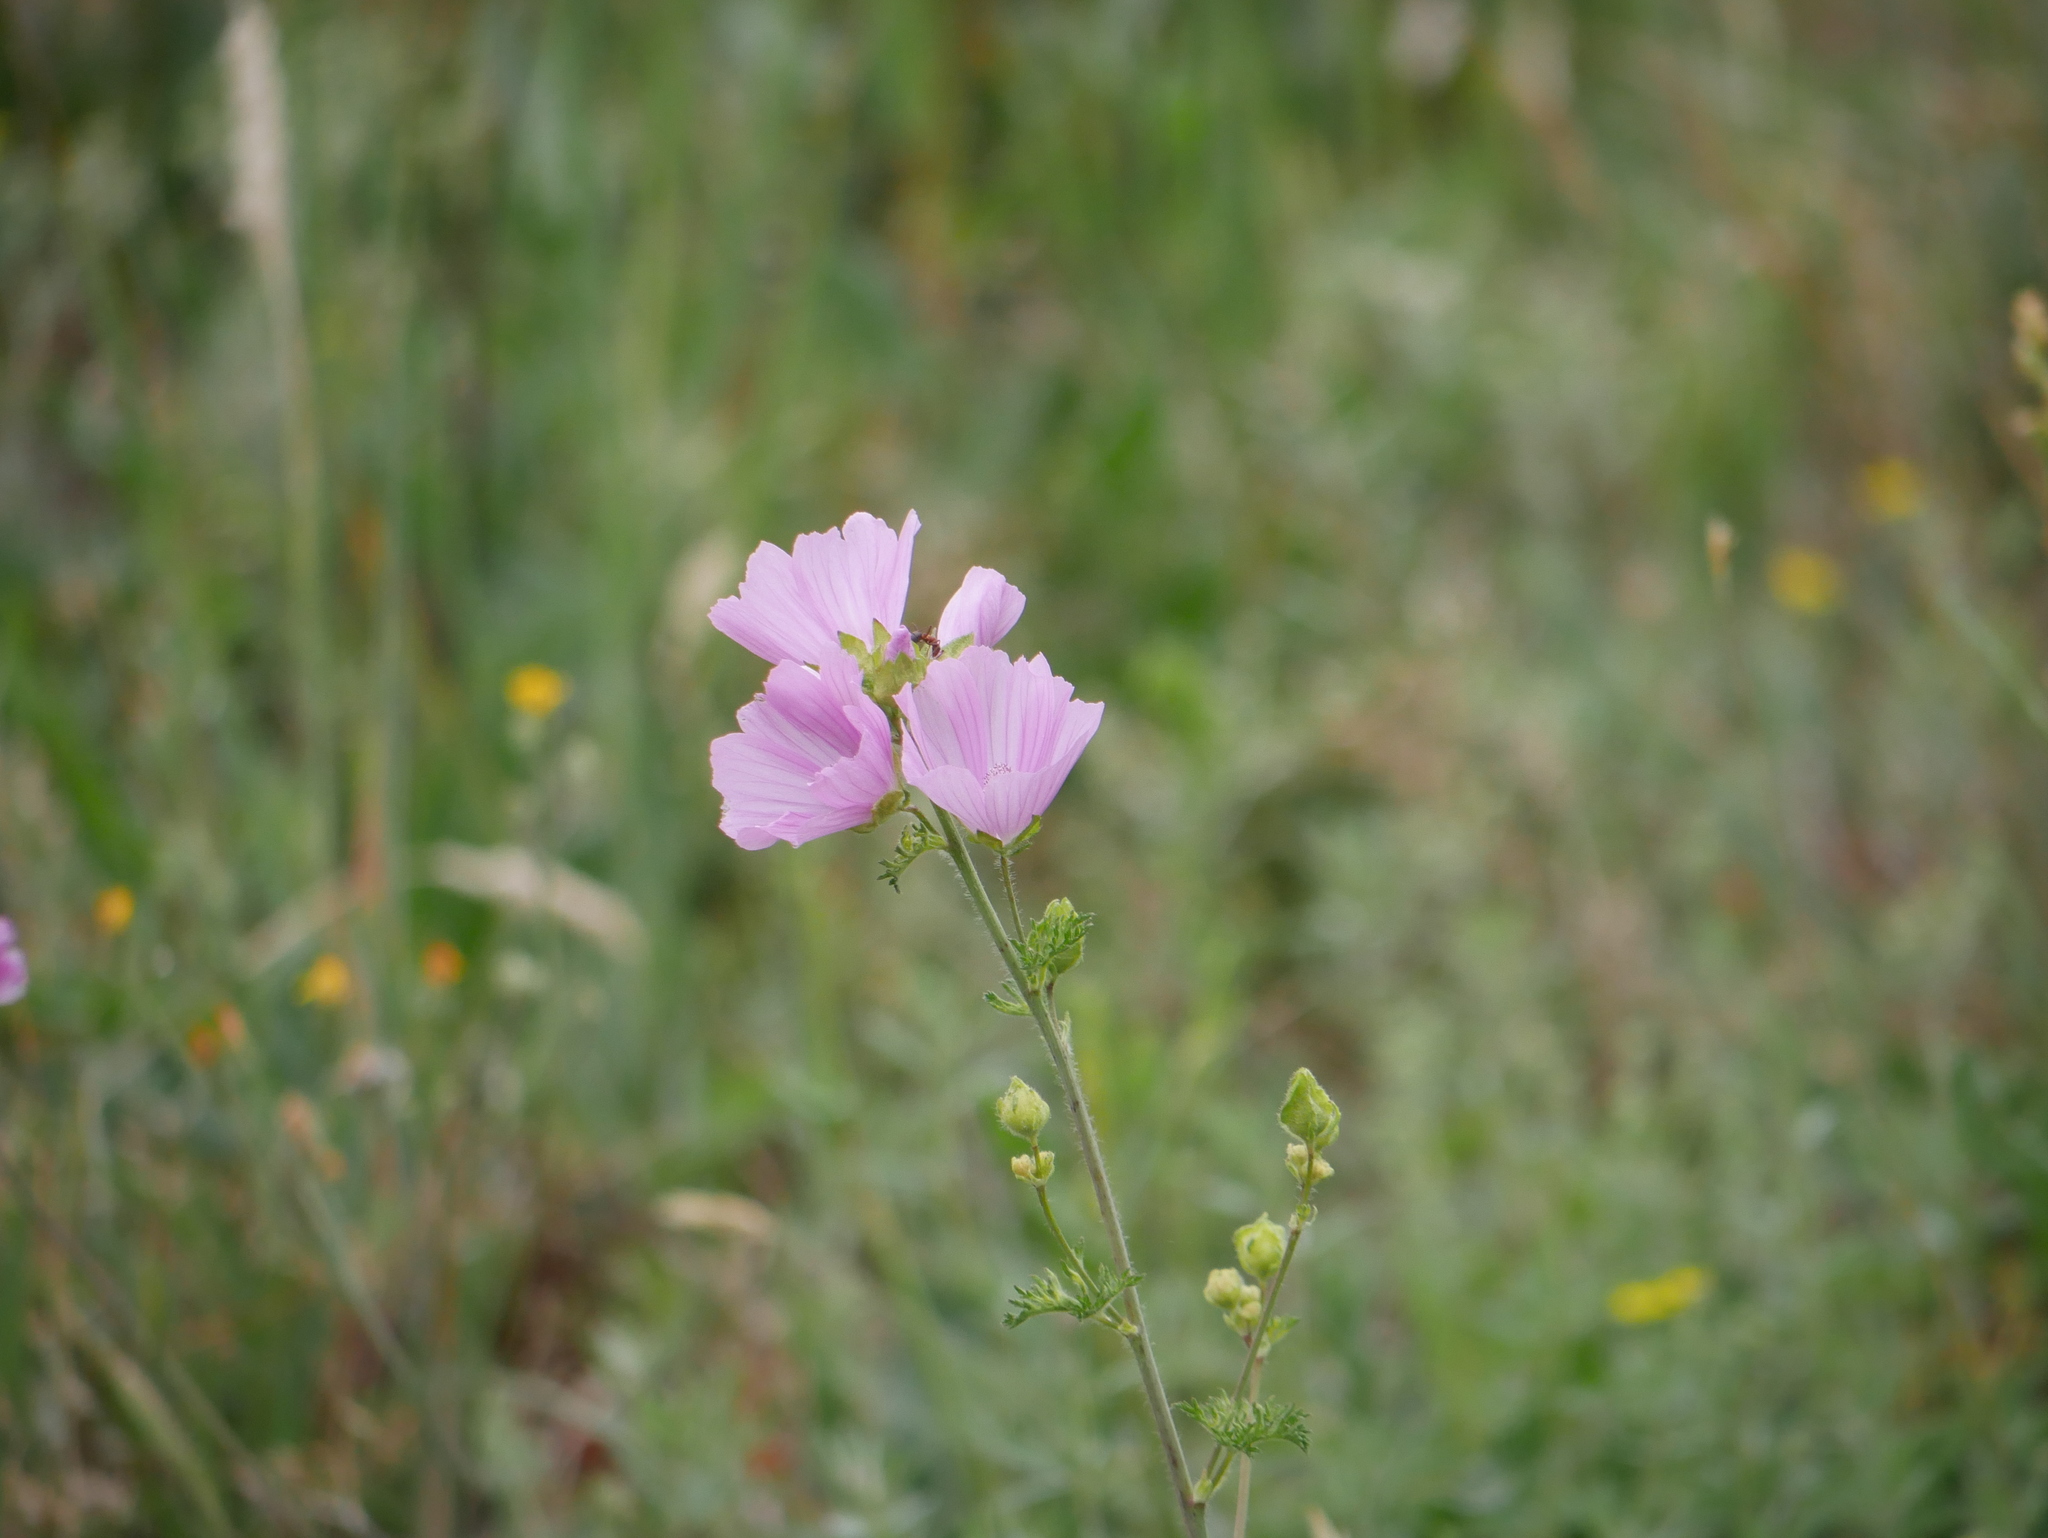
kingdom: Plantae
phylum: Tracheophyta
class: Magnoliopsida
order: Malvales
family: Malvaceae
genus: Malva
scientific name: Malva moschata
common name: Musk mallow
